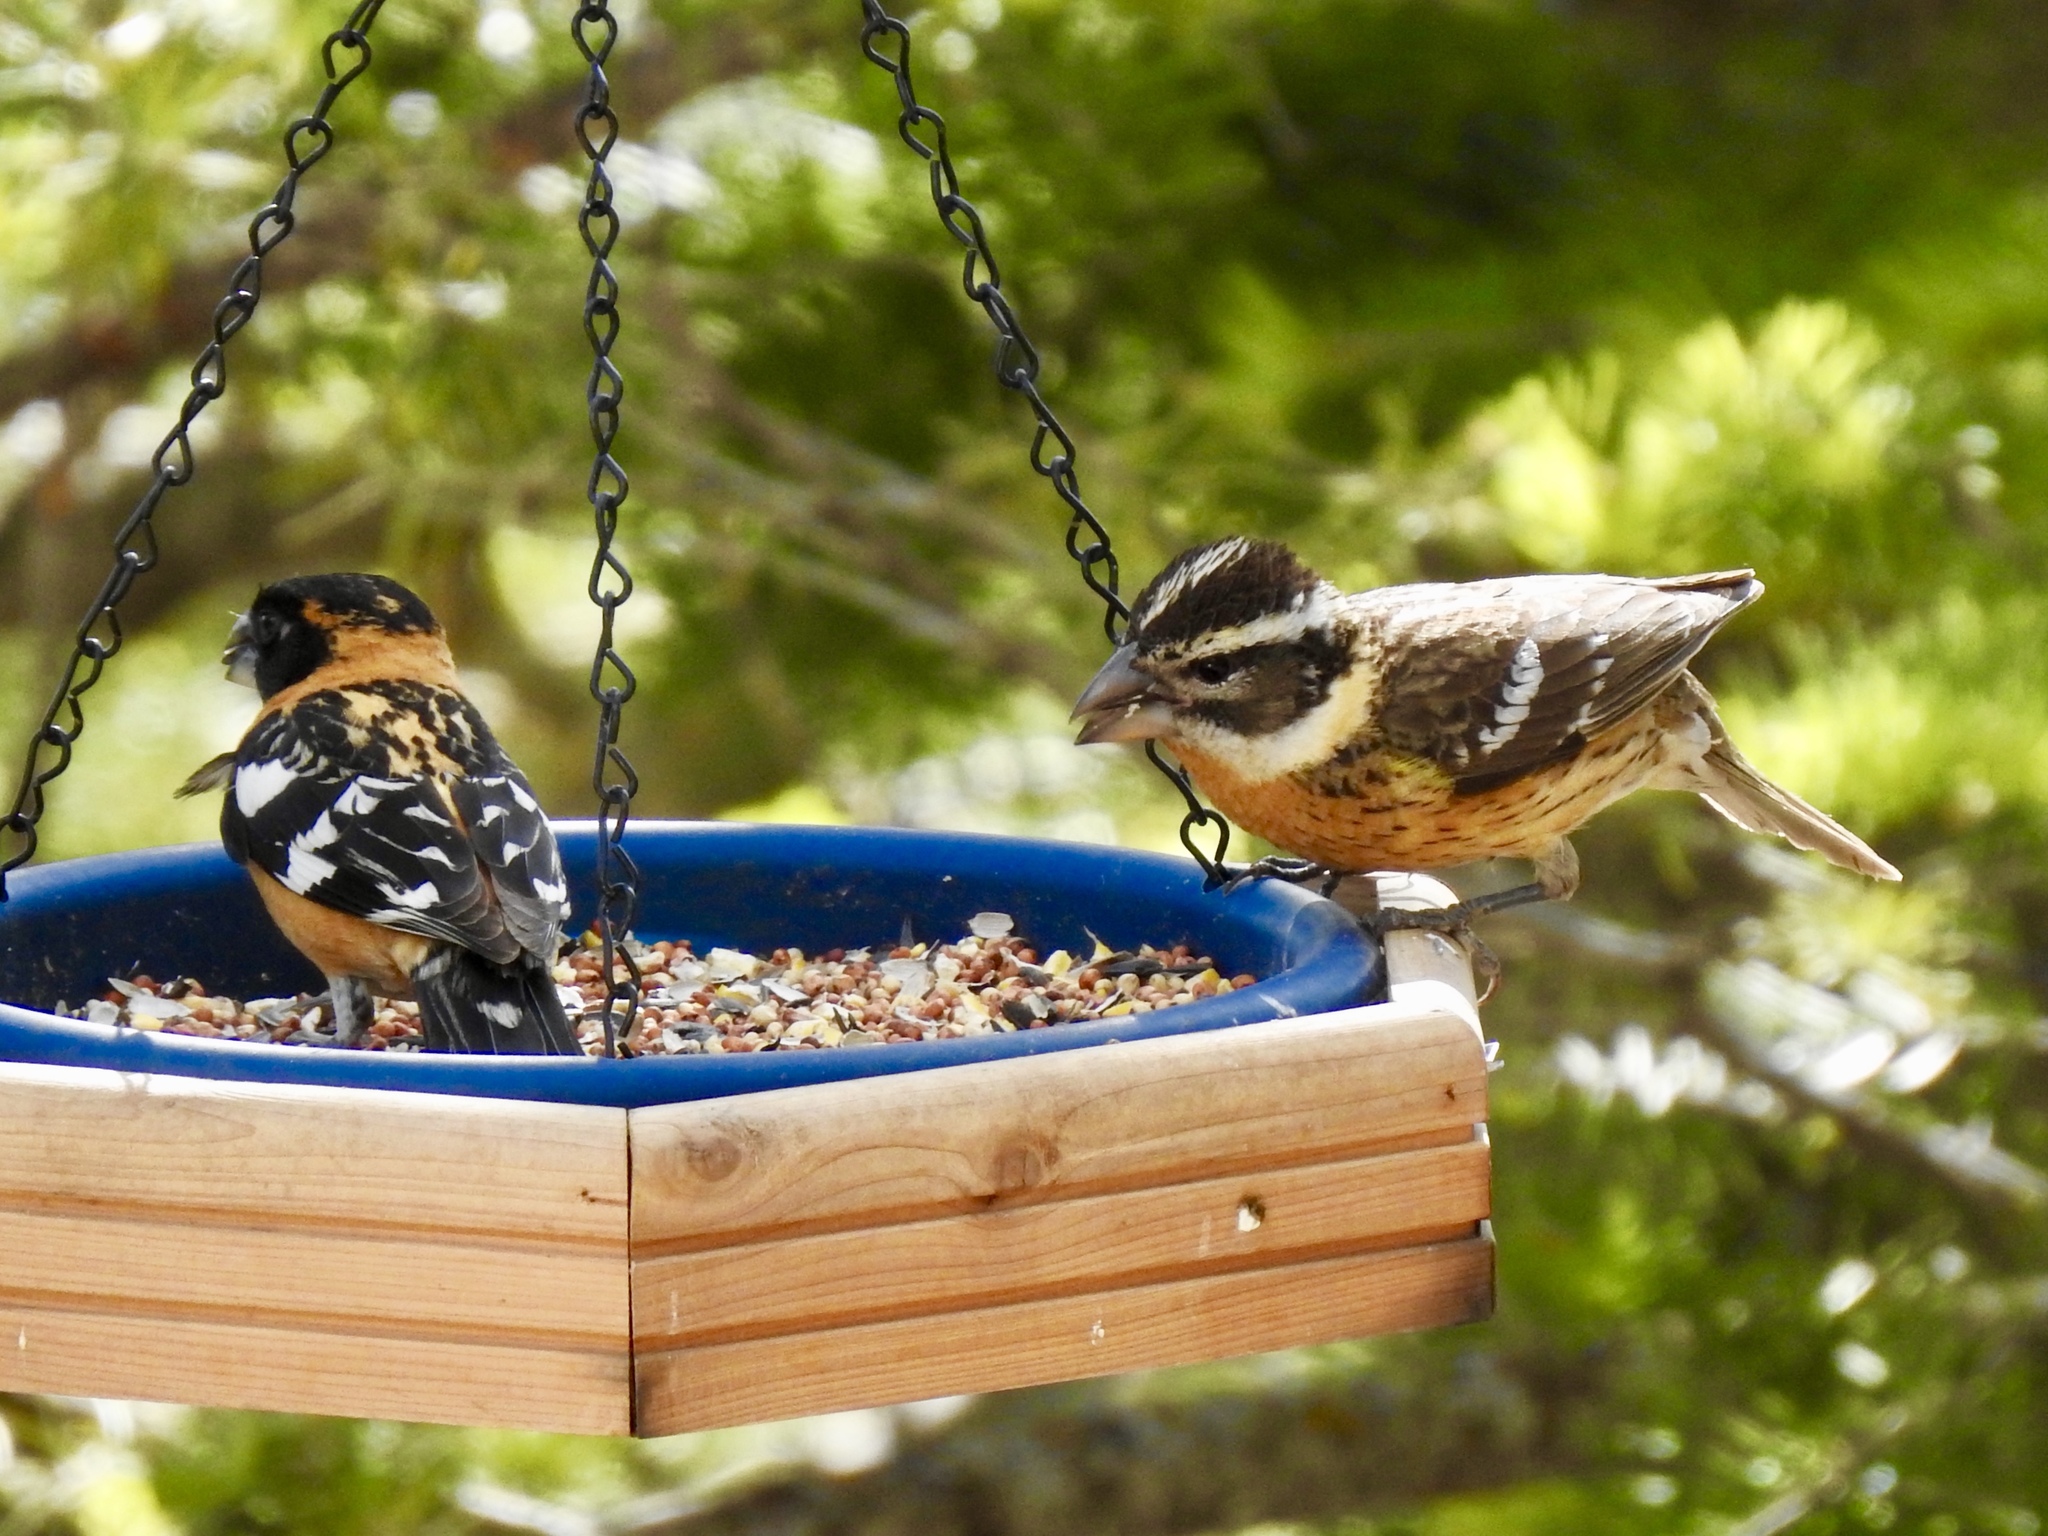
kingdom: Animalia
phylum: Chordata
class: Aves
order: Passeriformes
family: Cardinalidae
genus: Pheucticus
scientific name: Pheucticus melanocephalus
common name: Black-headed grosbeak
